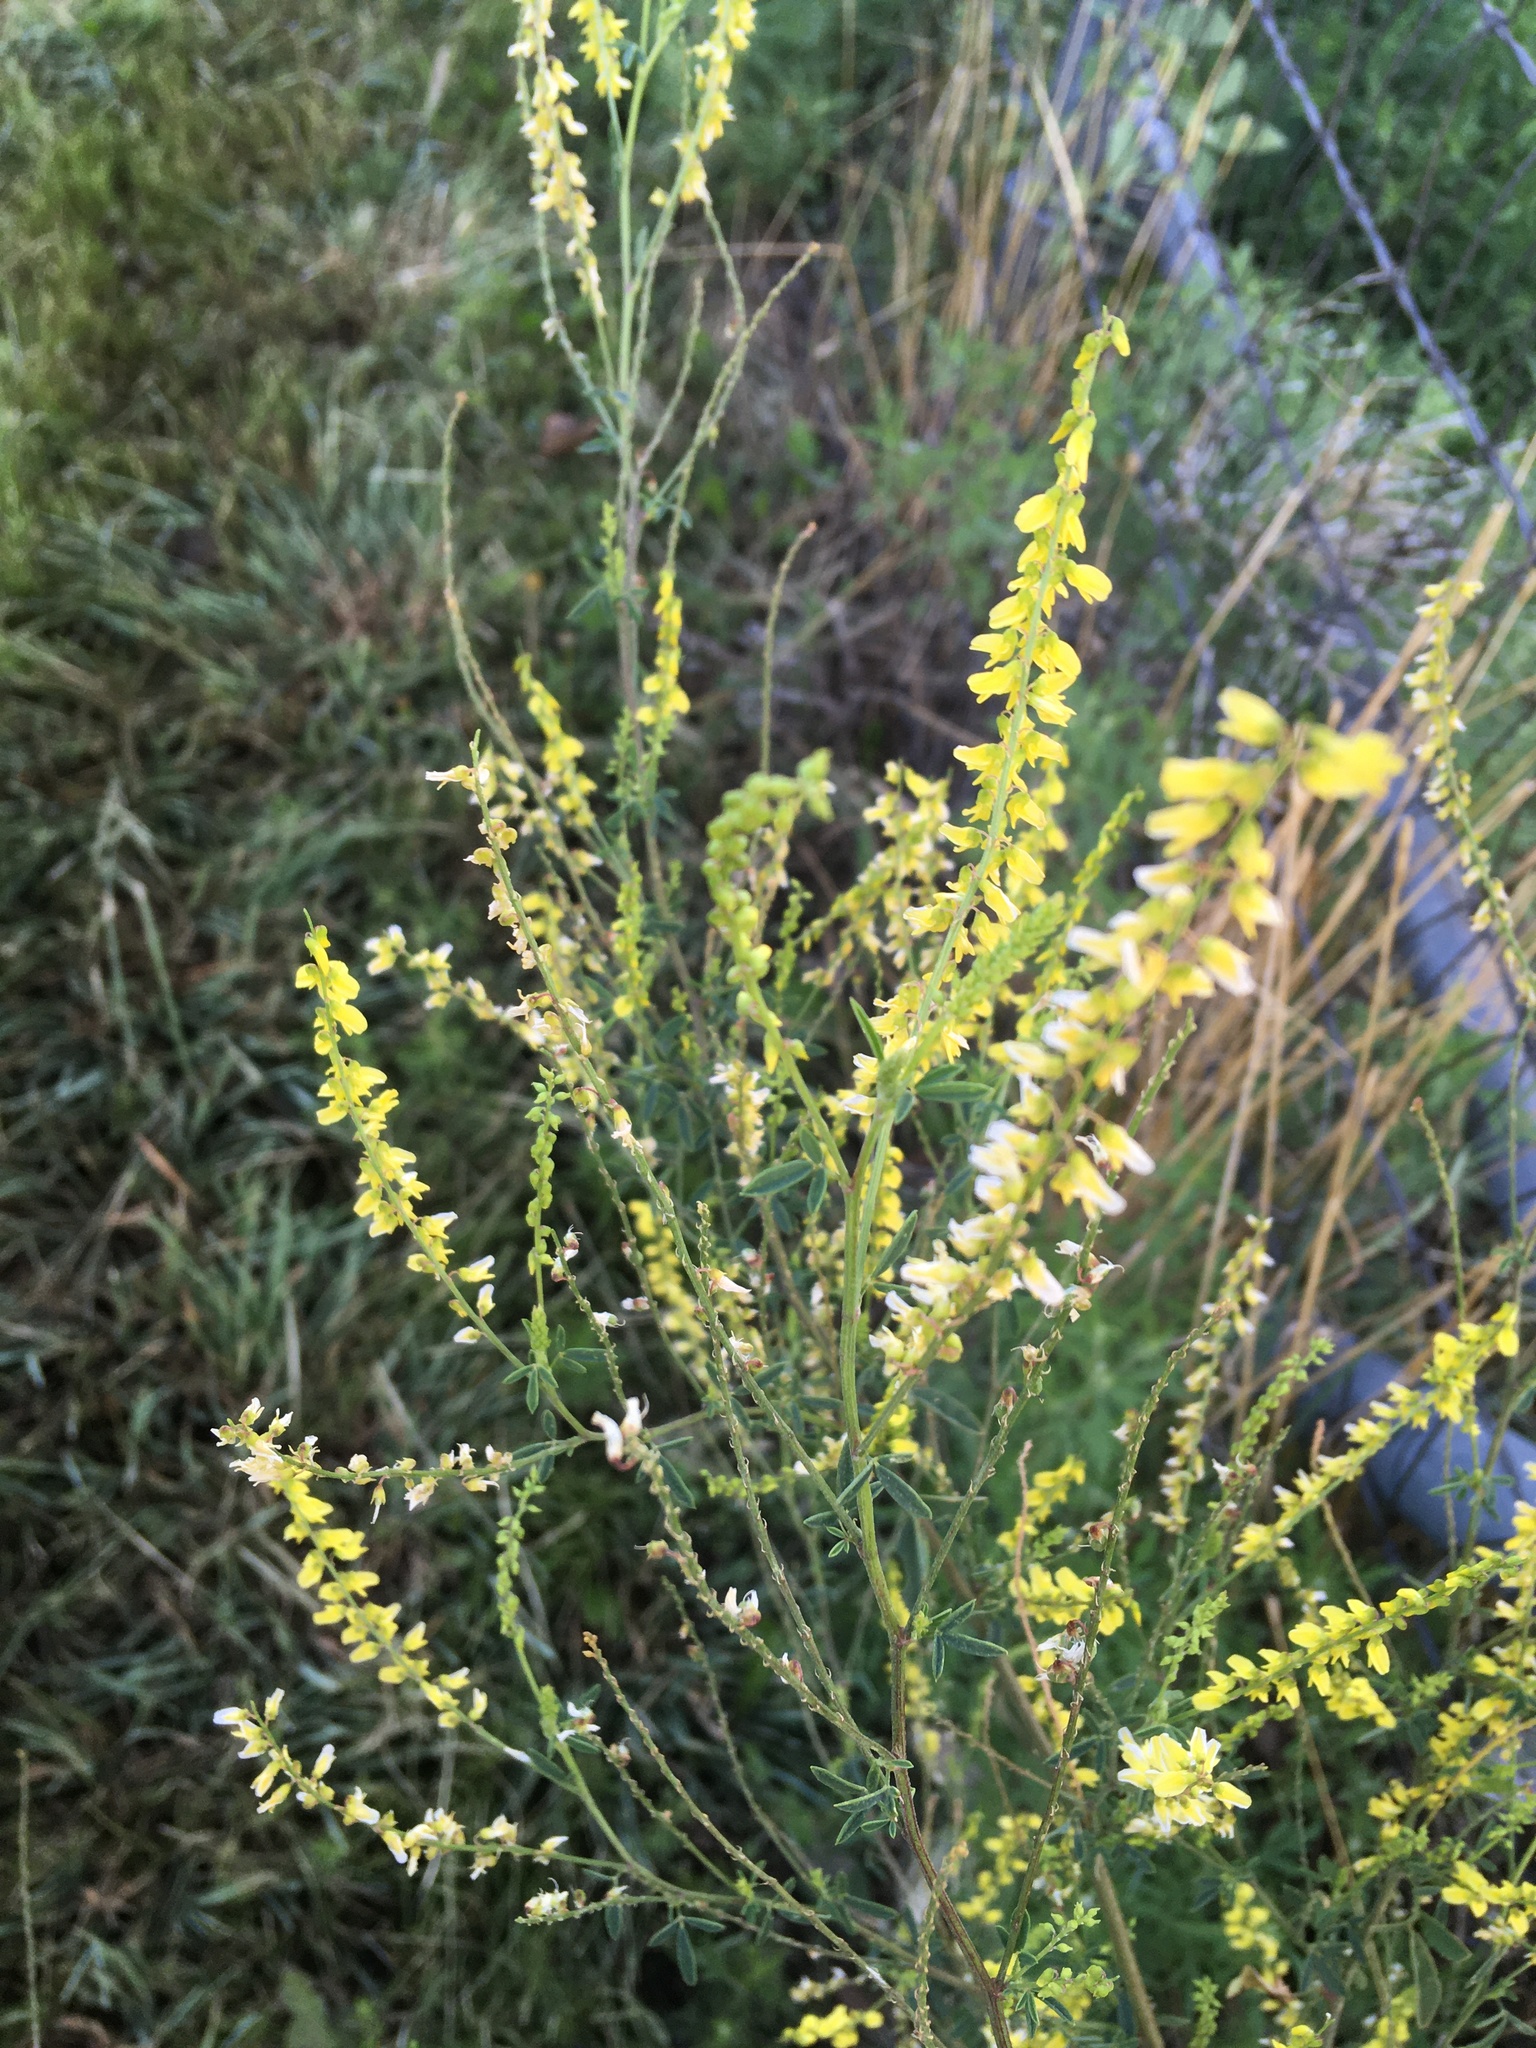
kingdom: Plantae
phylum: Tracheophyta
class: Magnoliopsida
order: Fabales
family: Fabaceae
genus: Melilotus
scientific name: Melilotus officinalis
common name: Sweetclover
